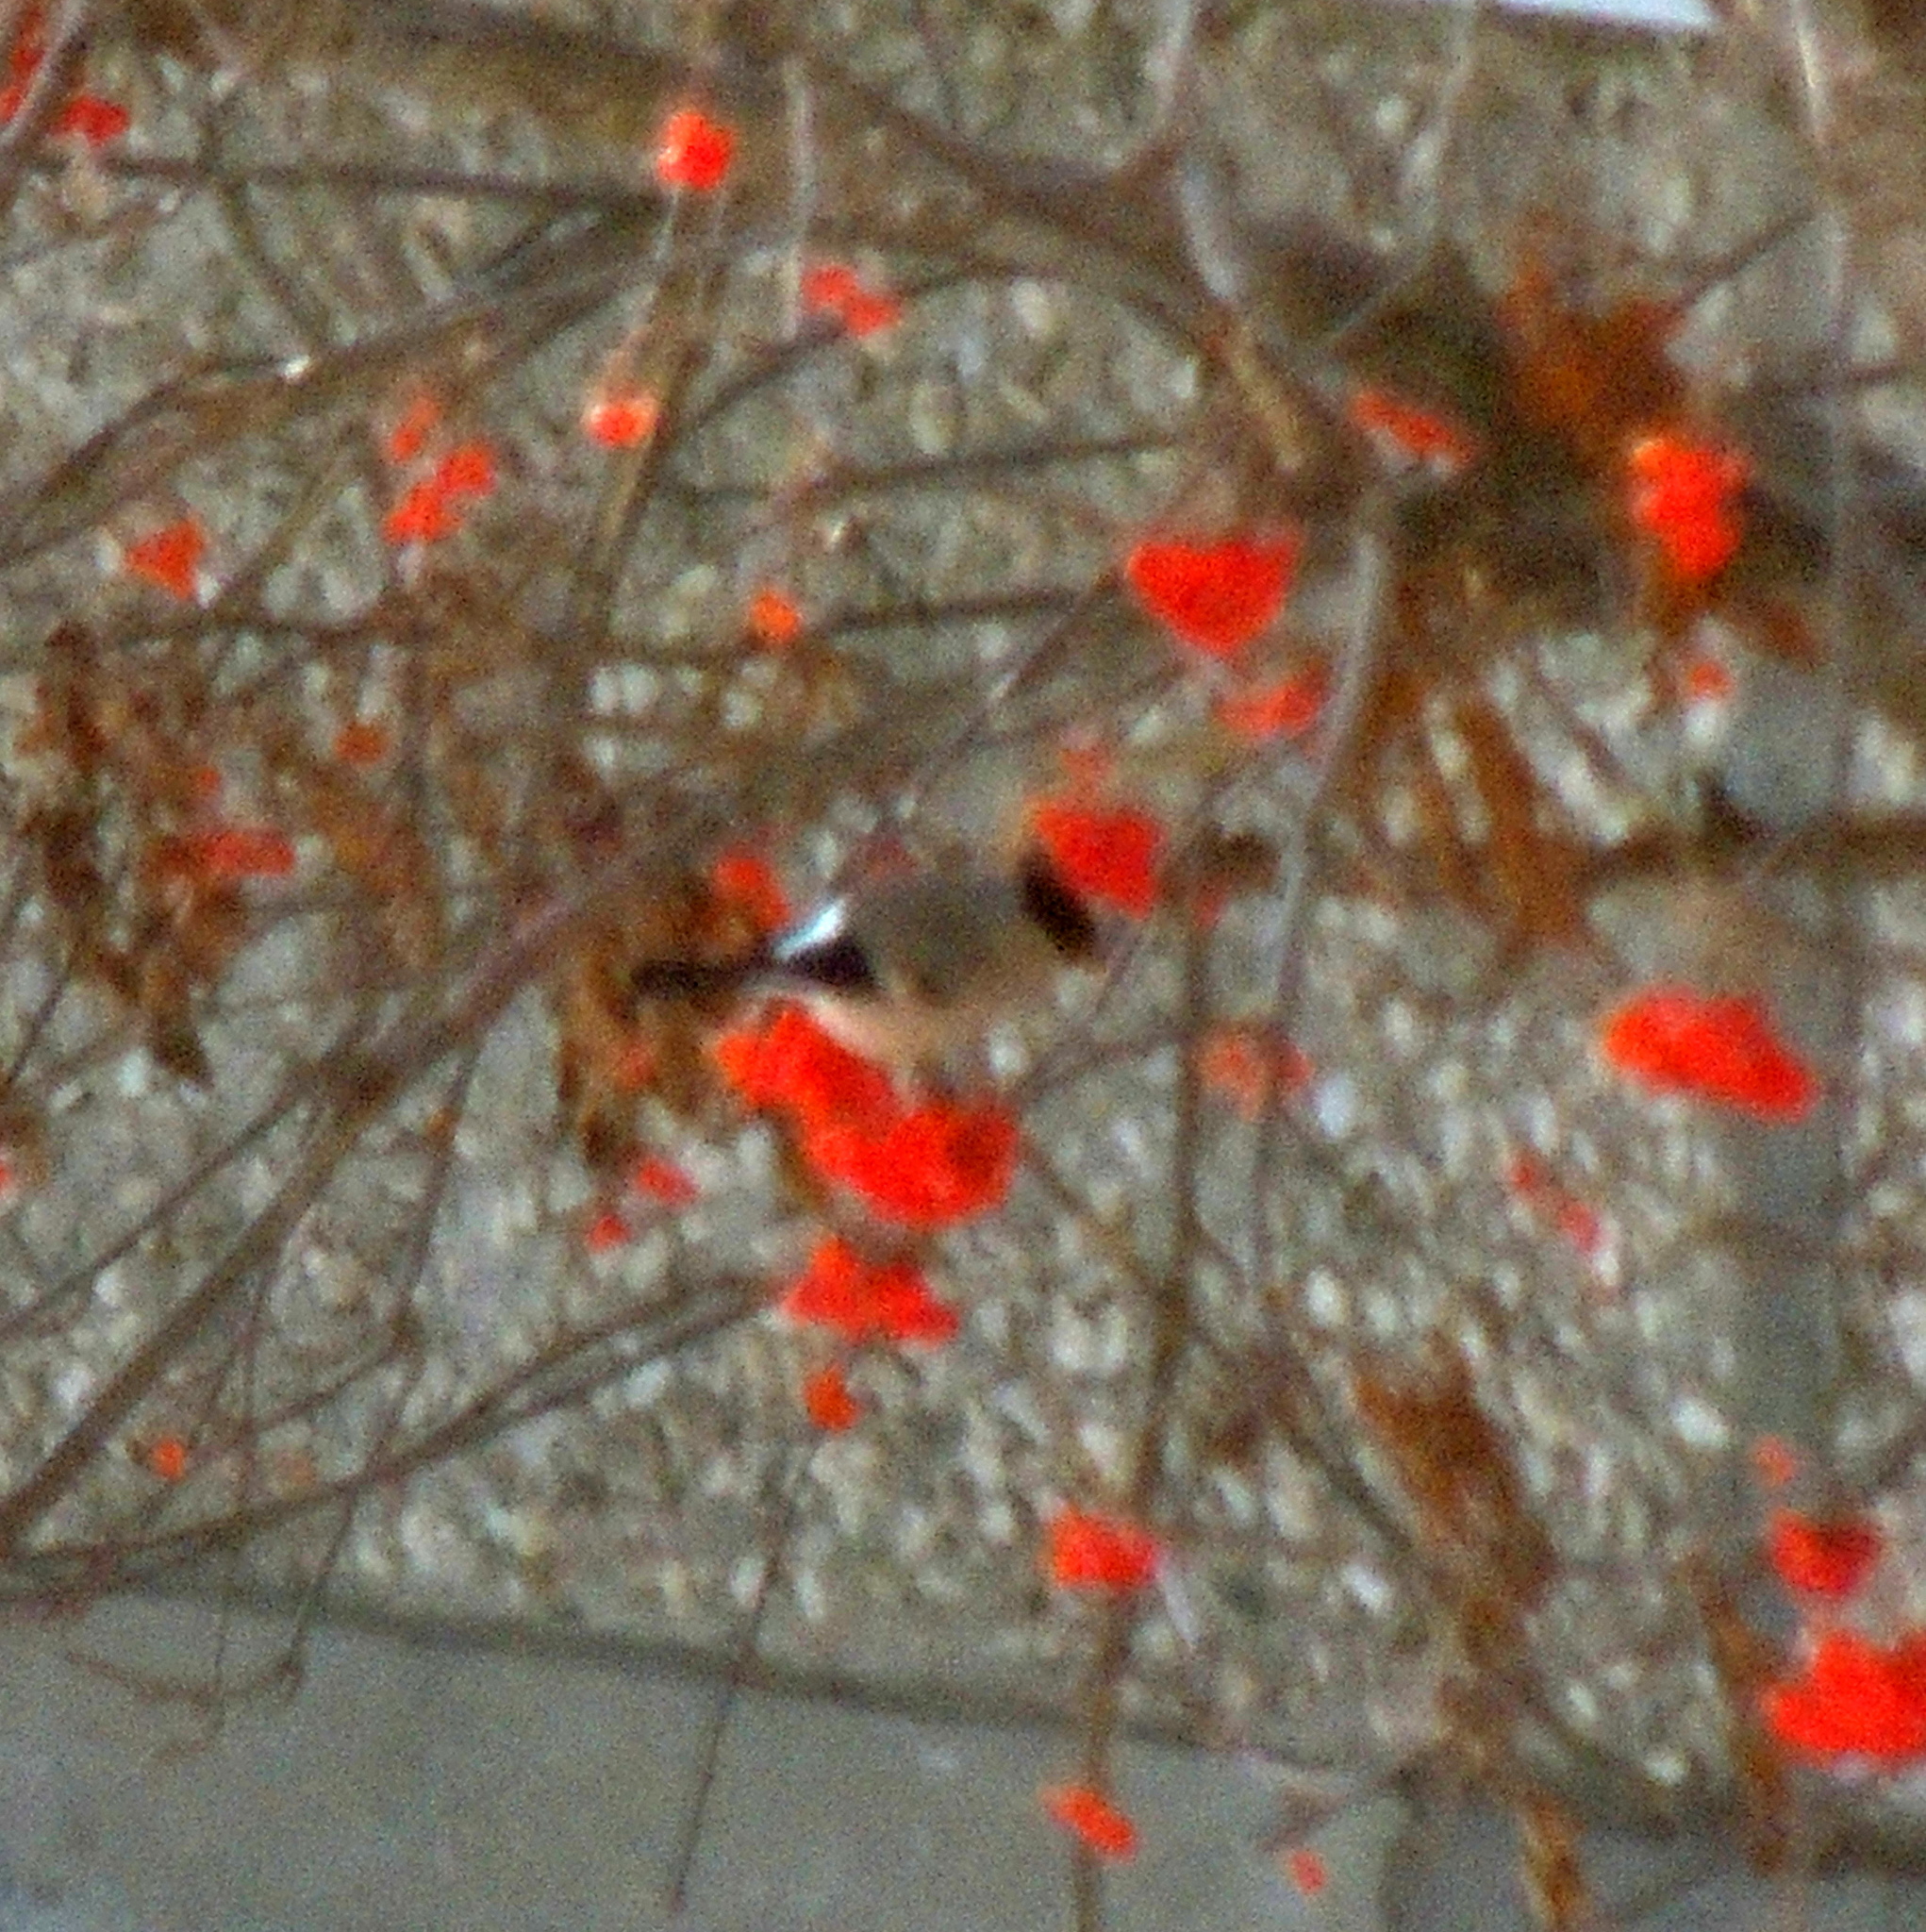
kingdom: Animalia
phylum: Chordata
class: Aves
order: Passeriformes
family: Fringillidae
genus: Pyrrhula
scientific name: Pyrrhula pyrrhula
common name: Eurasian bullfinch
